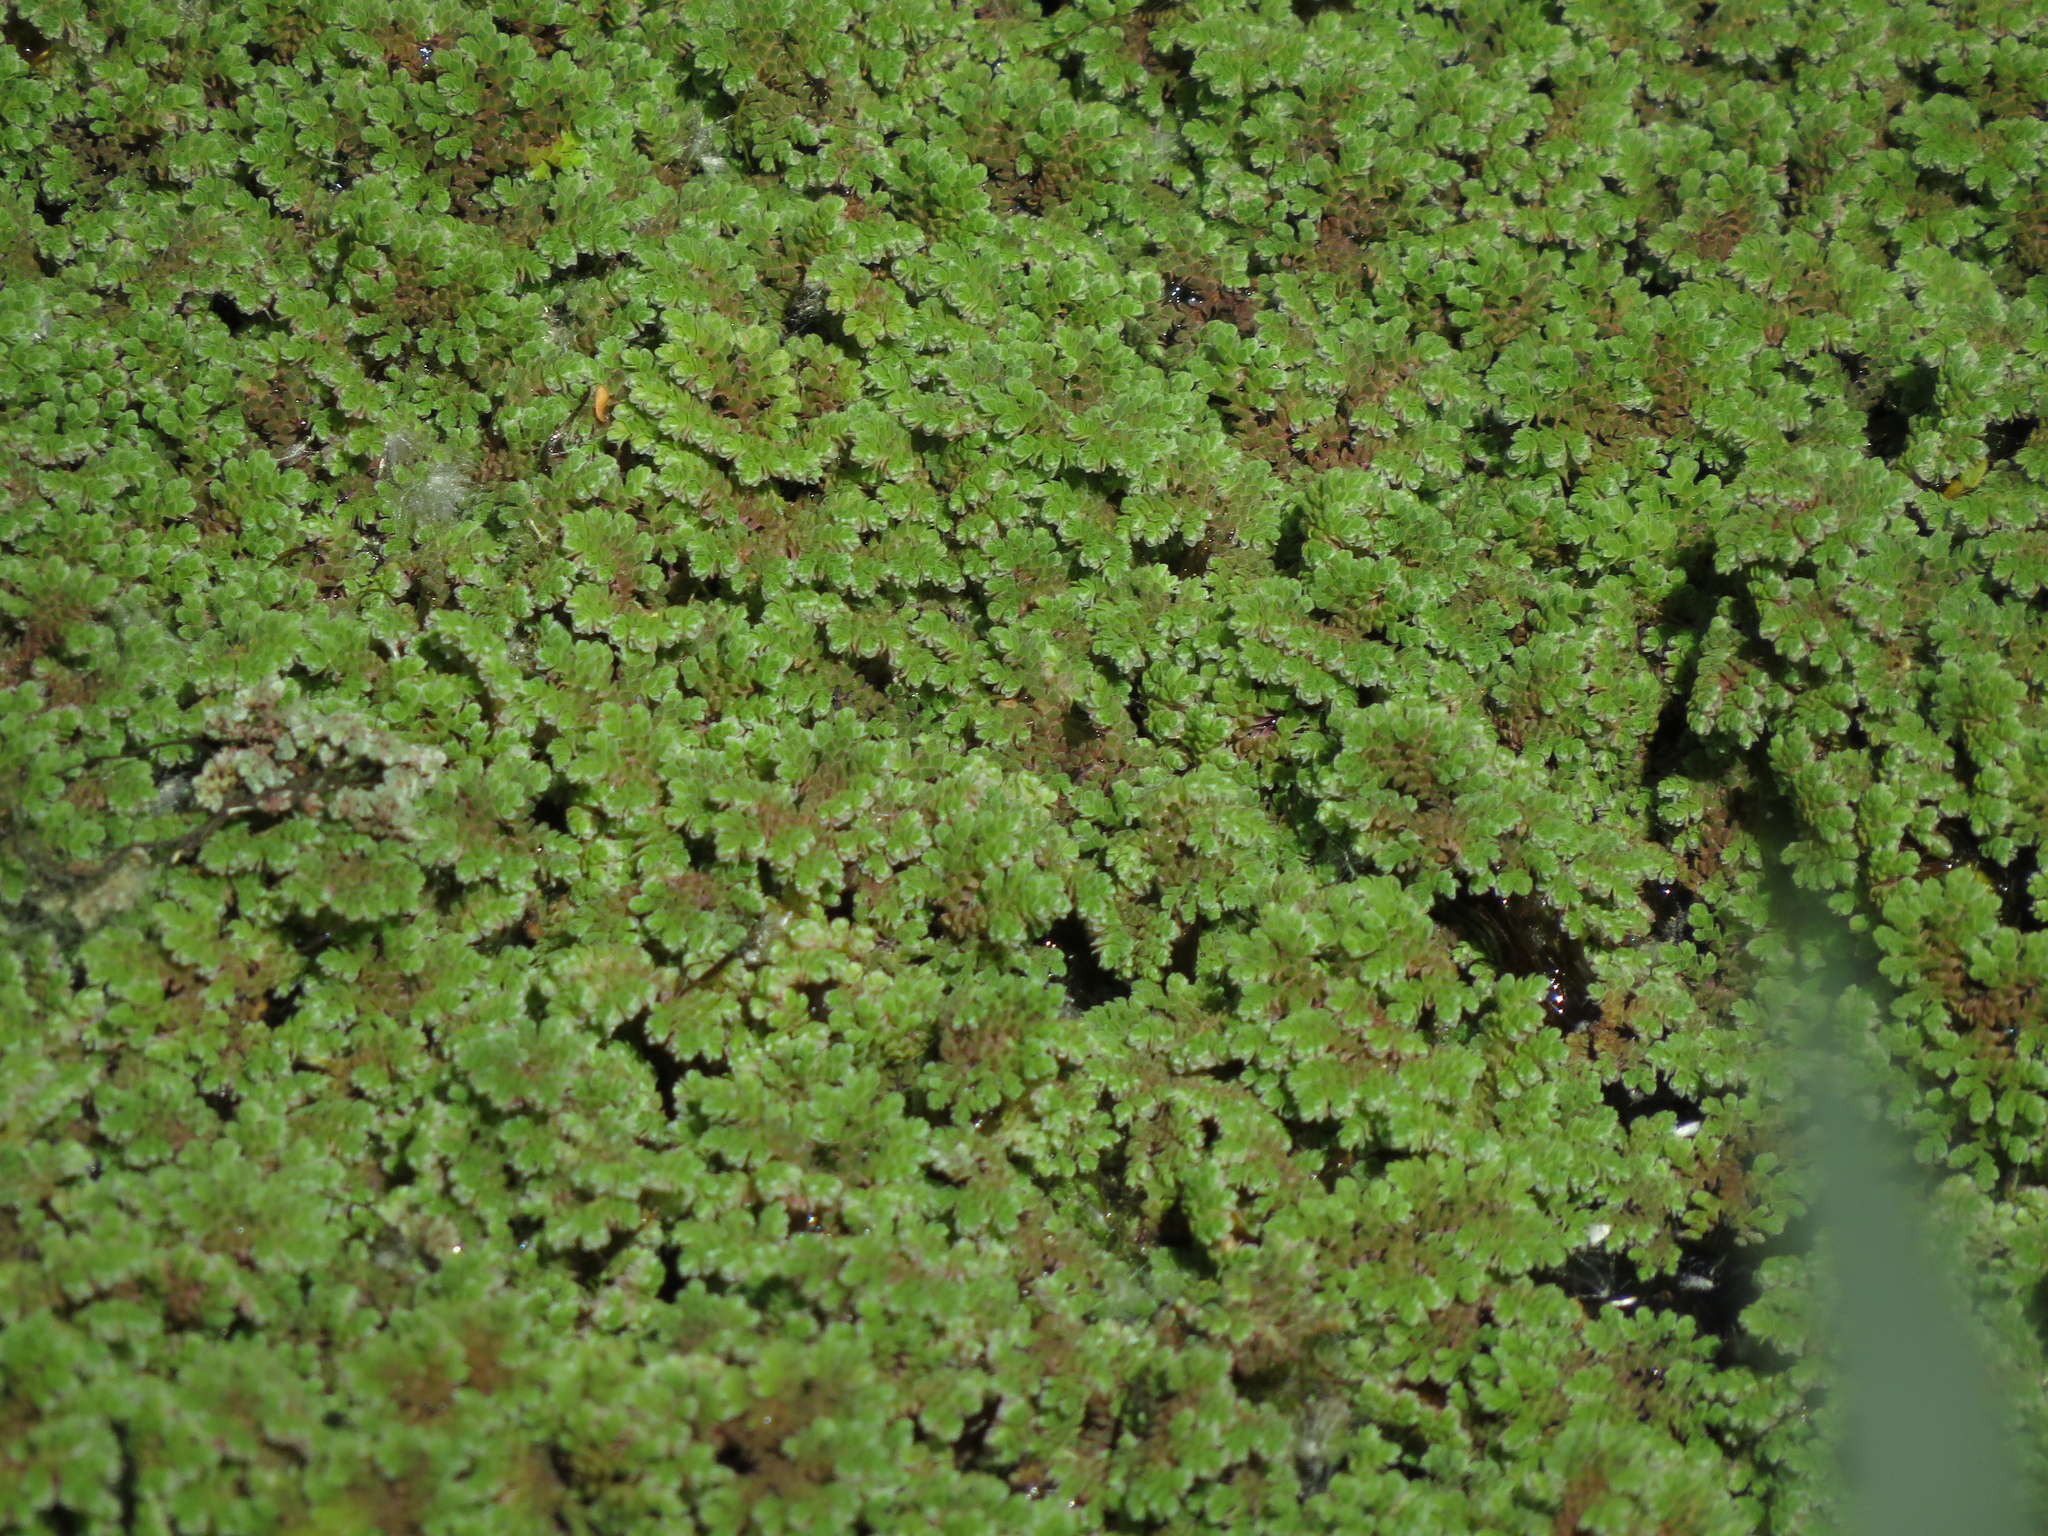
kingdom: Plantae
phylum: Tracheophyta
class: Polypodiopsida
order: Salviniales
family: Salviniaceae
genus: Azolla
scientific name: Azolla filiculoides
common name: Water fern
